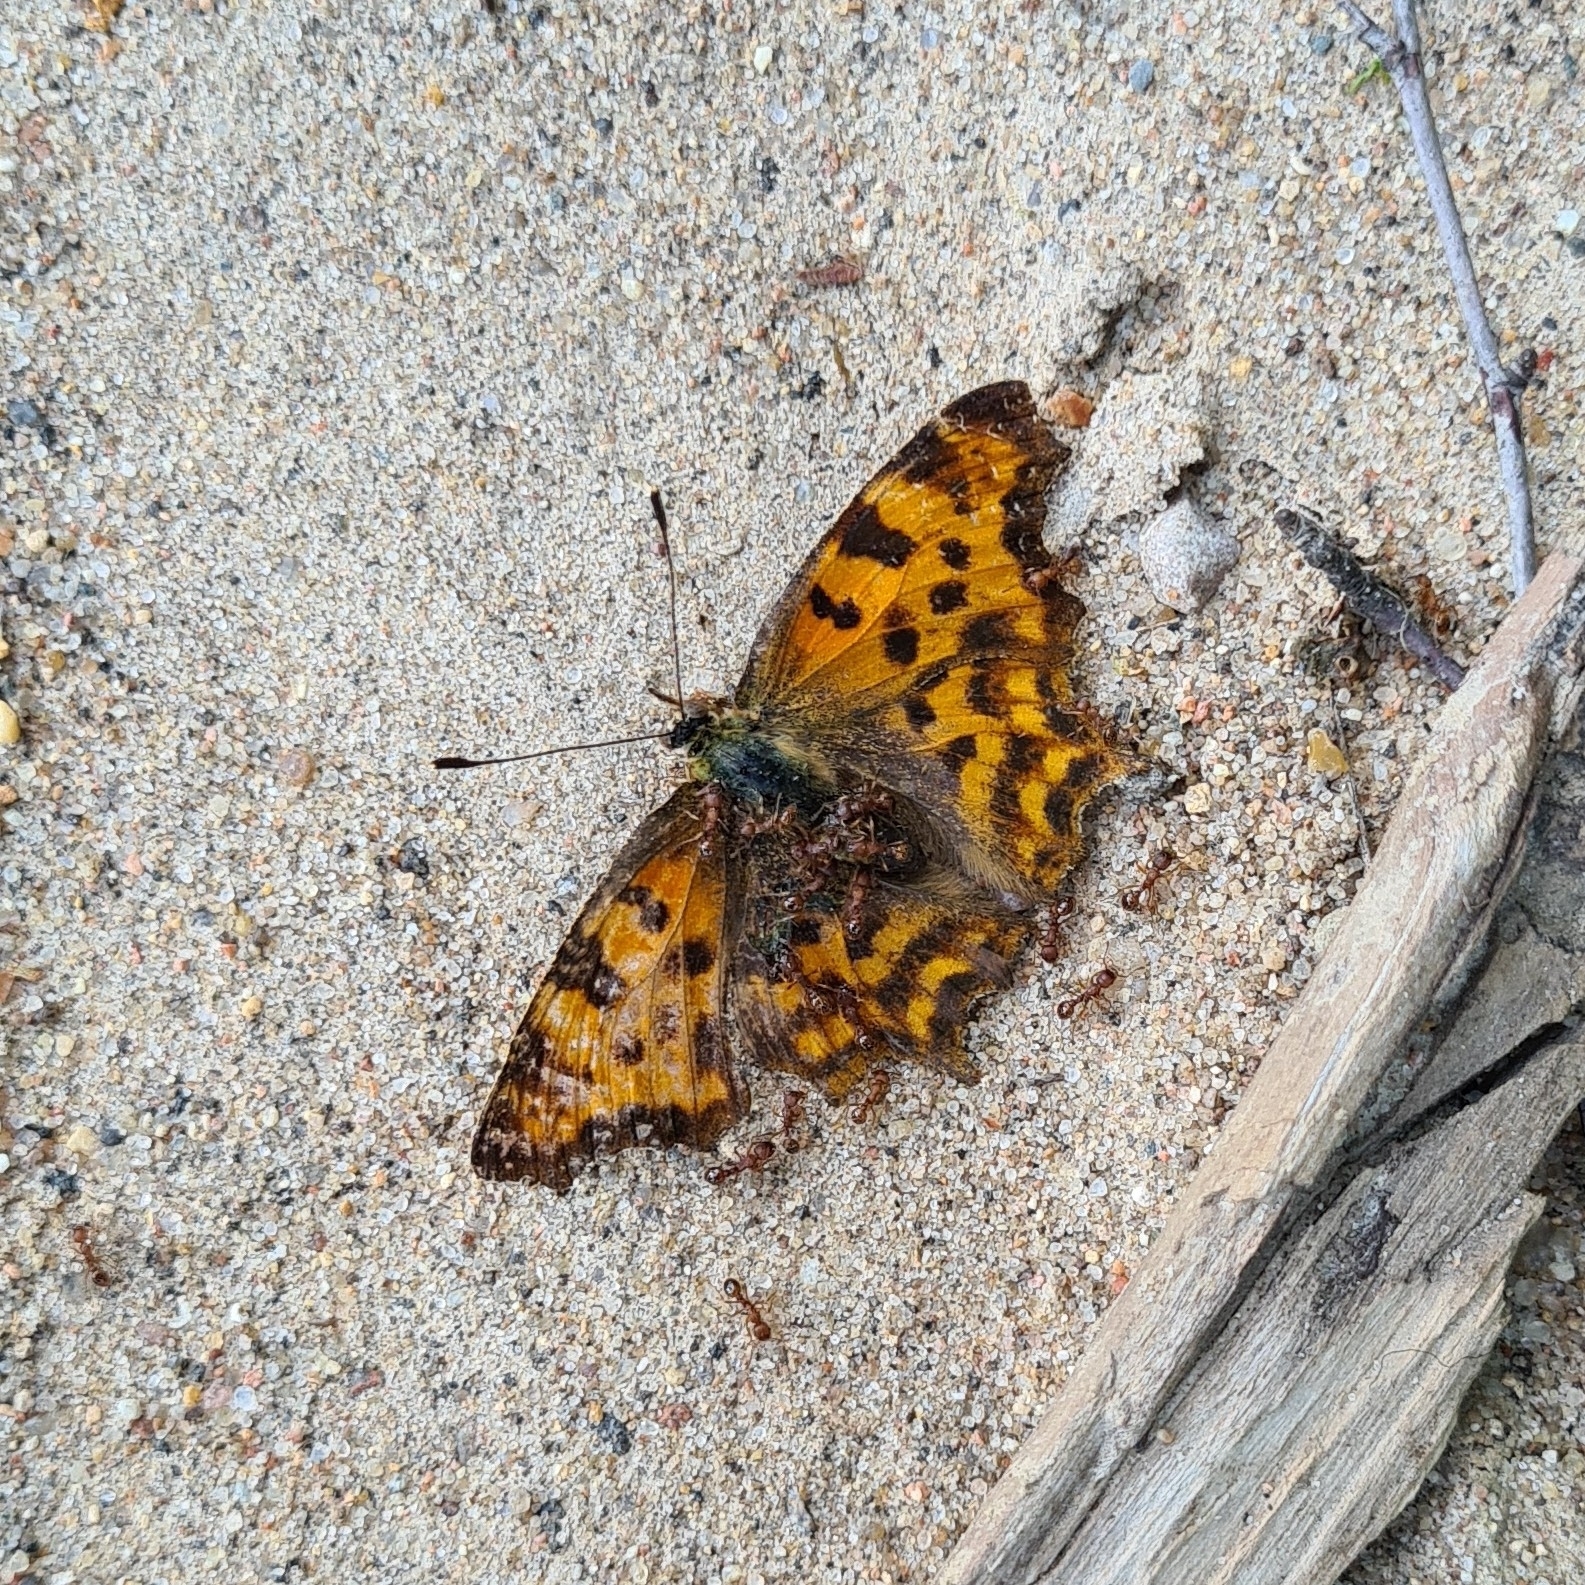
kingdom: Animalia
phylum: Arthropoda
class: Insecta
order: Lepidoptera
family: Nymphalidae
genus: Polygonia
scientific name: Polygonia c-album
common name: Comma
